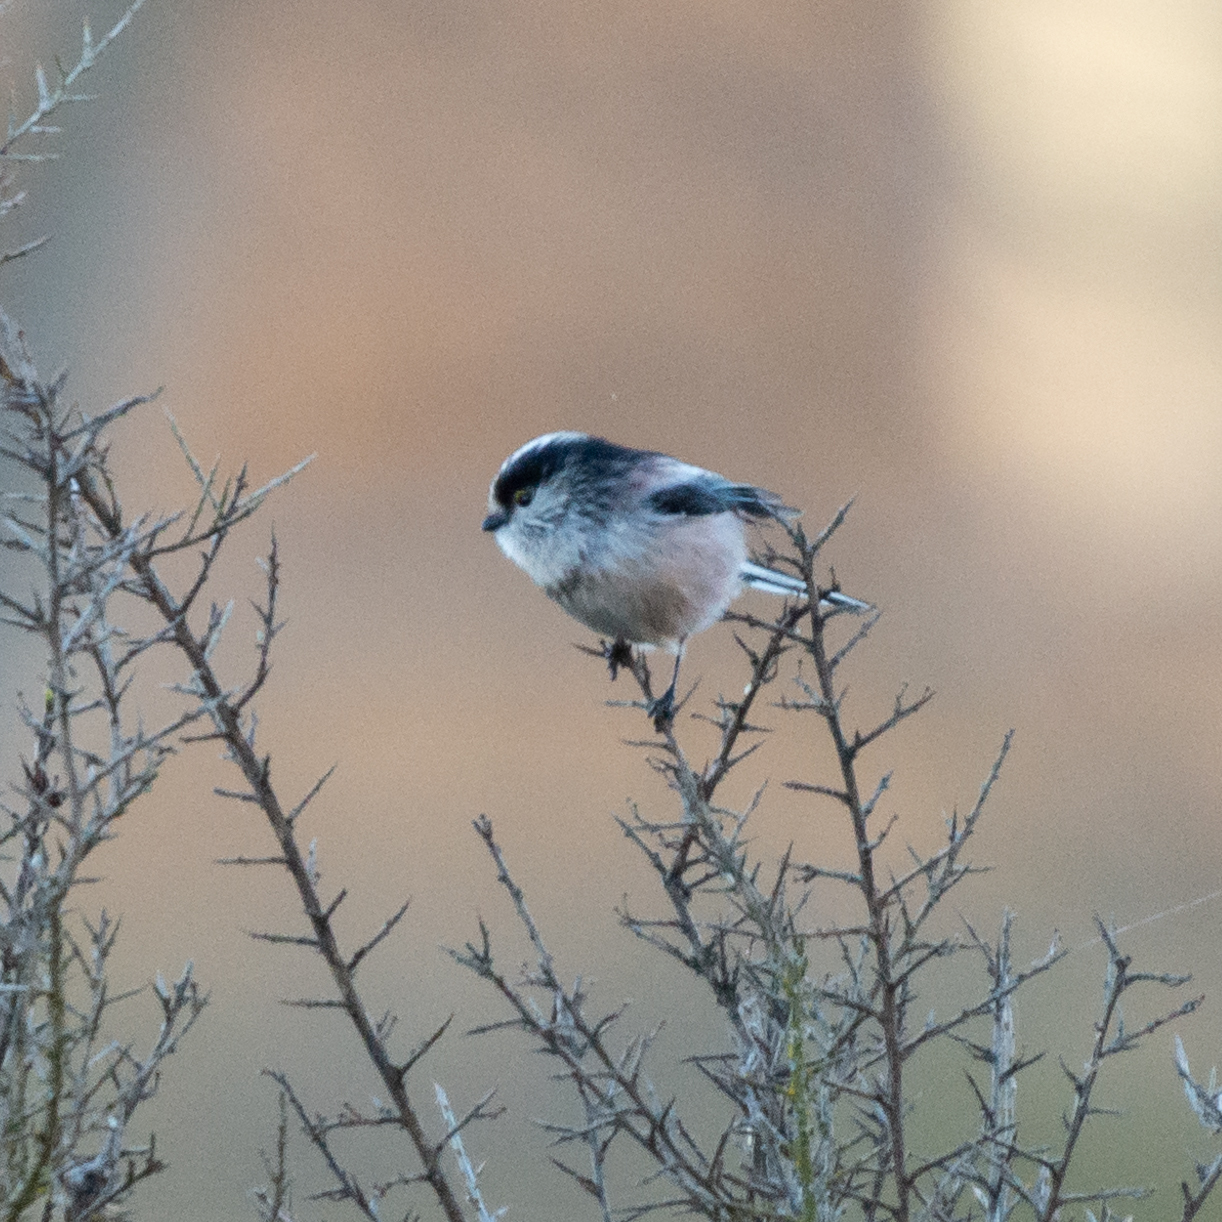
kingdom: Animalia
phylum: Chordata
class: Aves
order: Passeriformes
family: Aegithalidae
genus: Aegithalos
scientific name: Aegithalos caudatus
